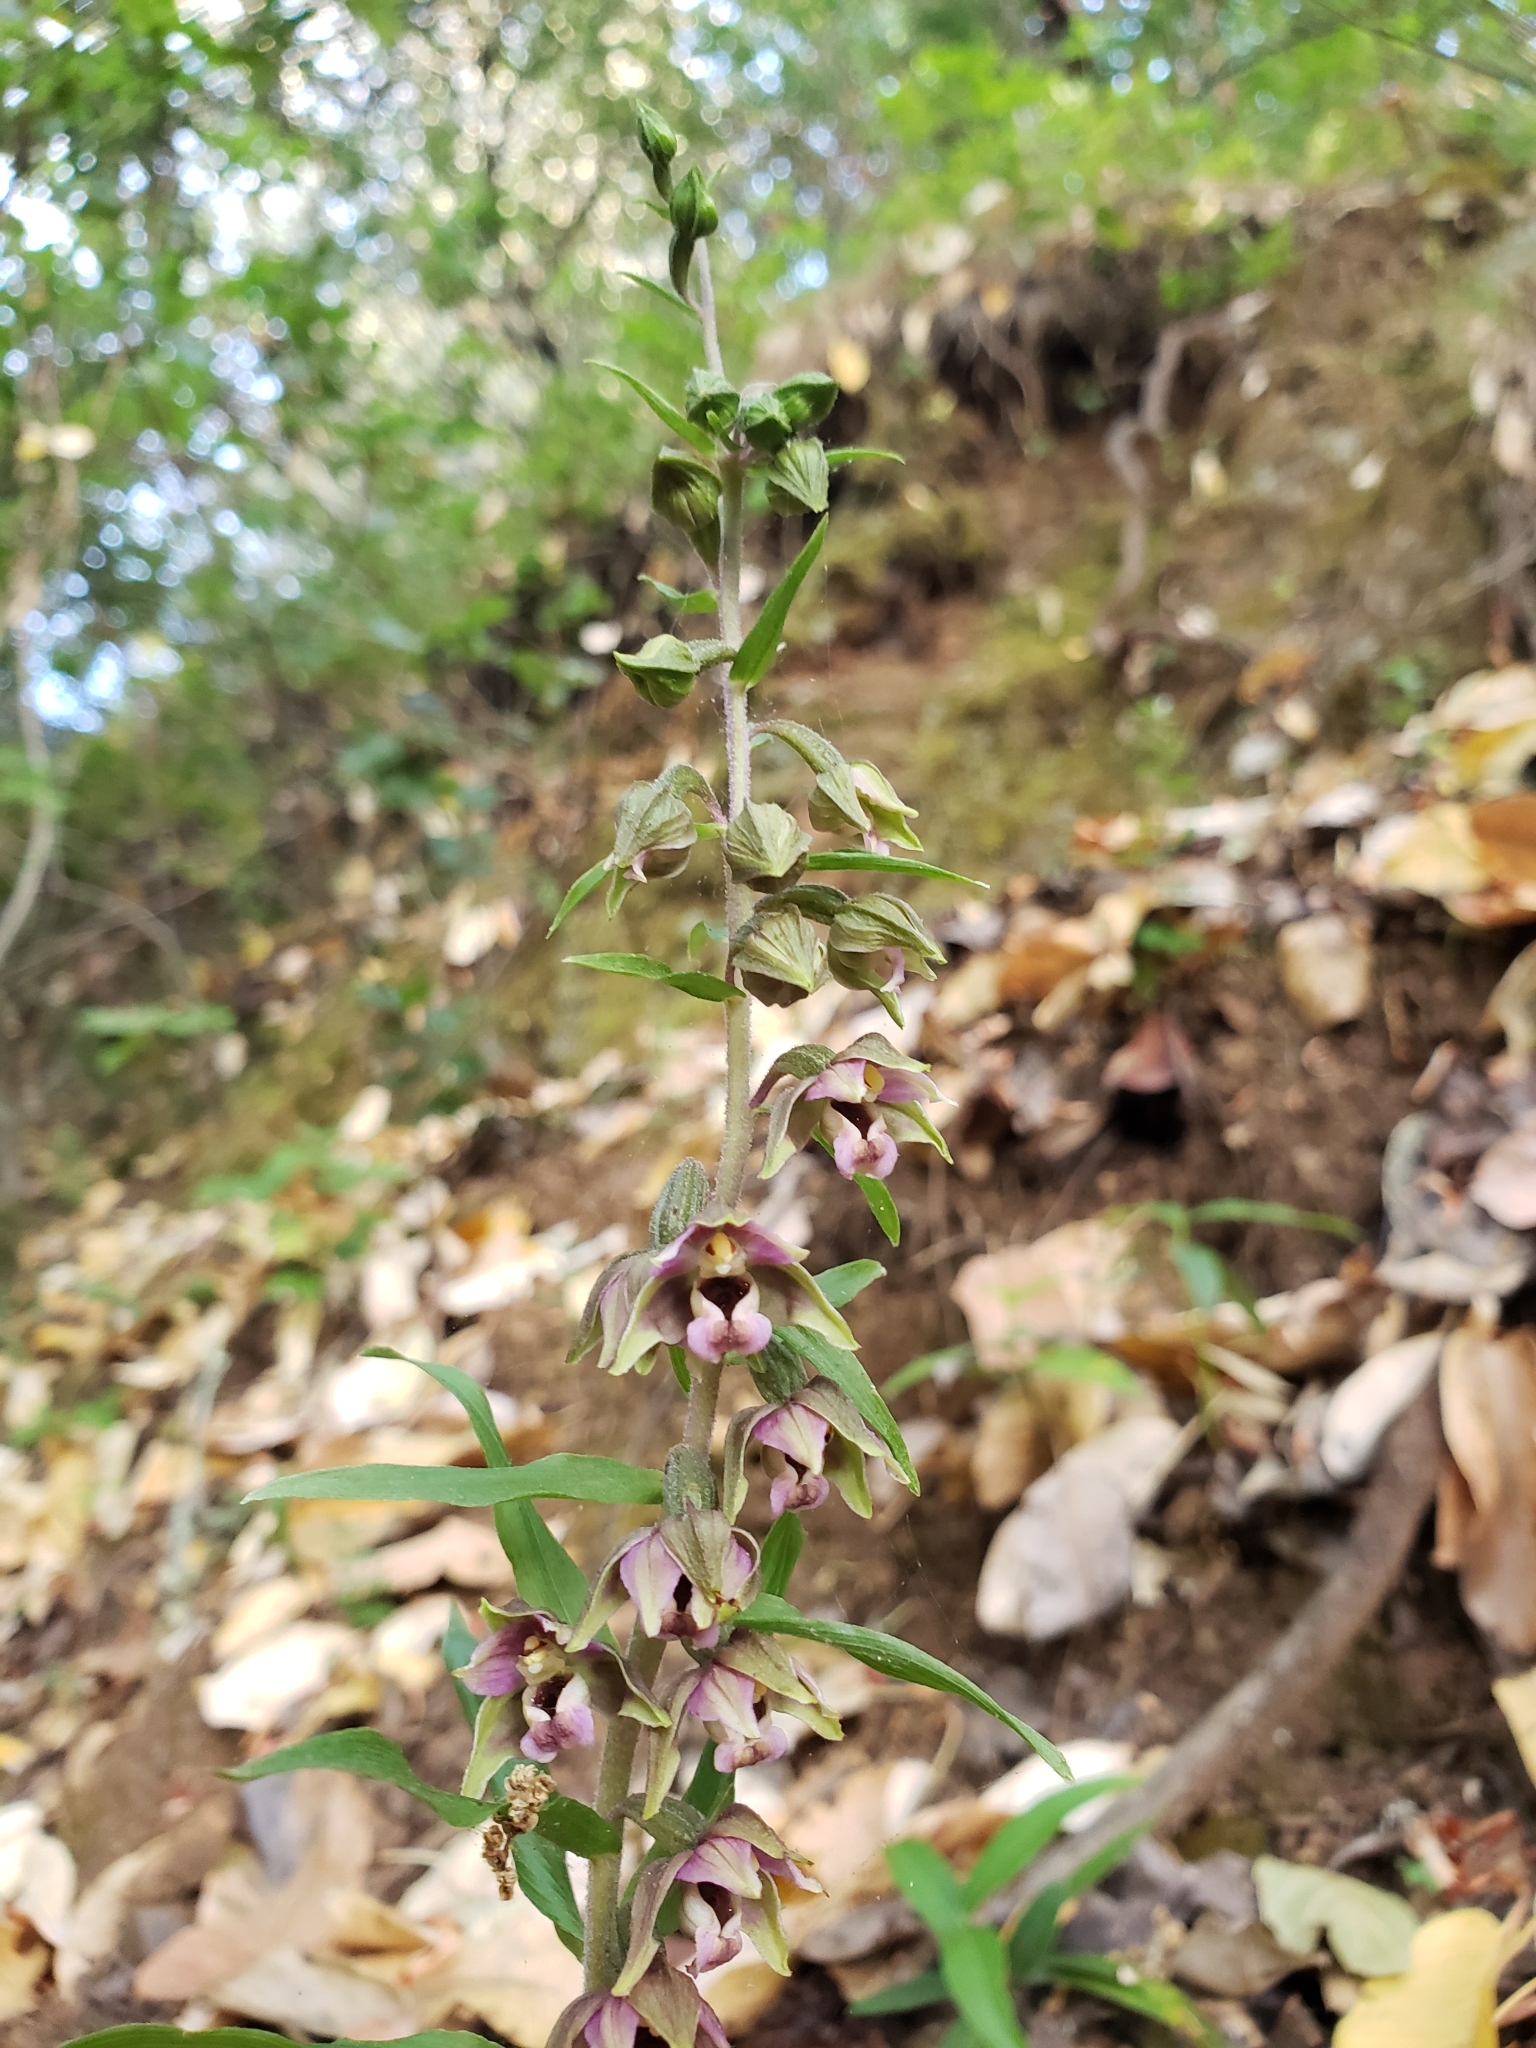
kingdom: Plantae
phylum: Tracheophyta
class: Liliopsida
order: Asparagales
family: Orchidaceae
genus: Epipactis
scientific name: Epipactis helleborine
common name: Broad-leaved helleborine
